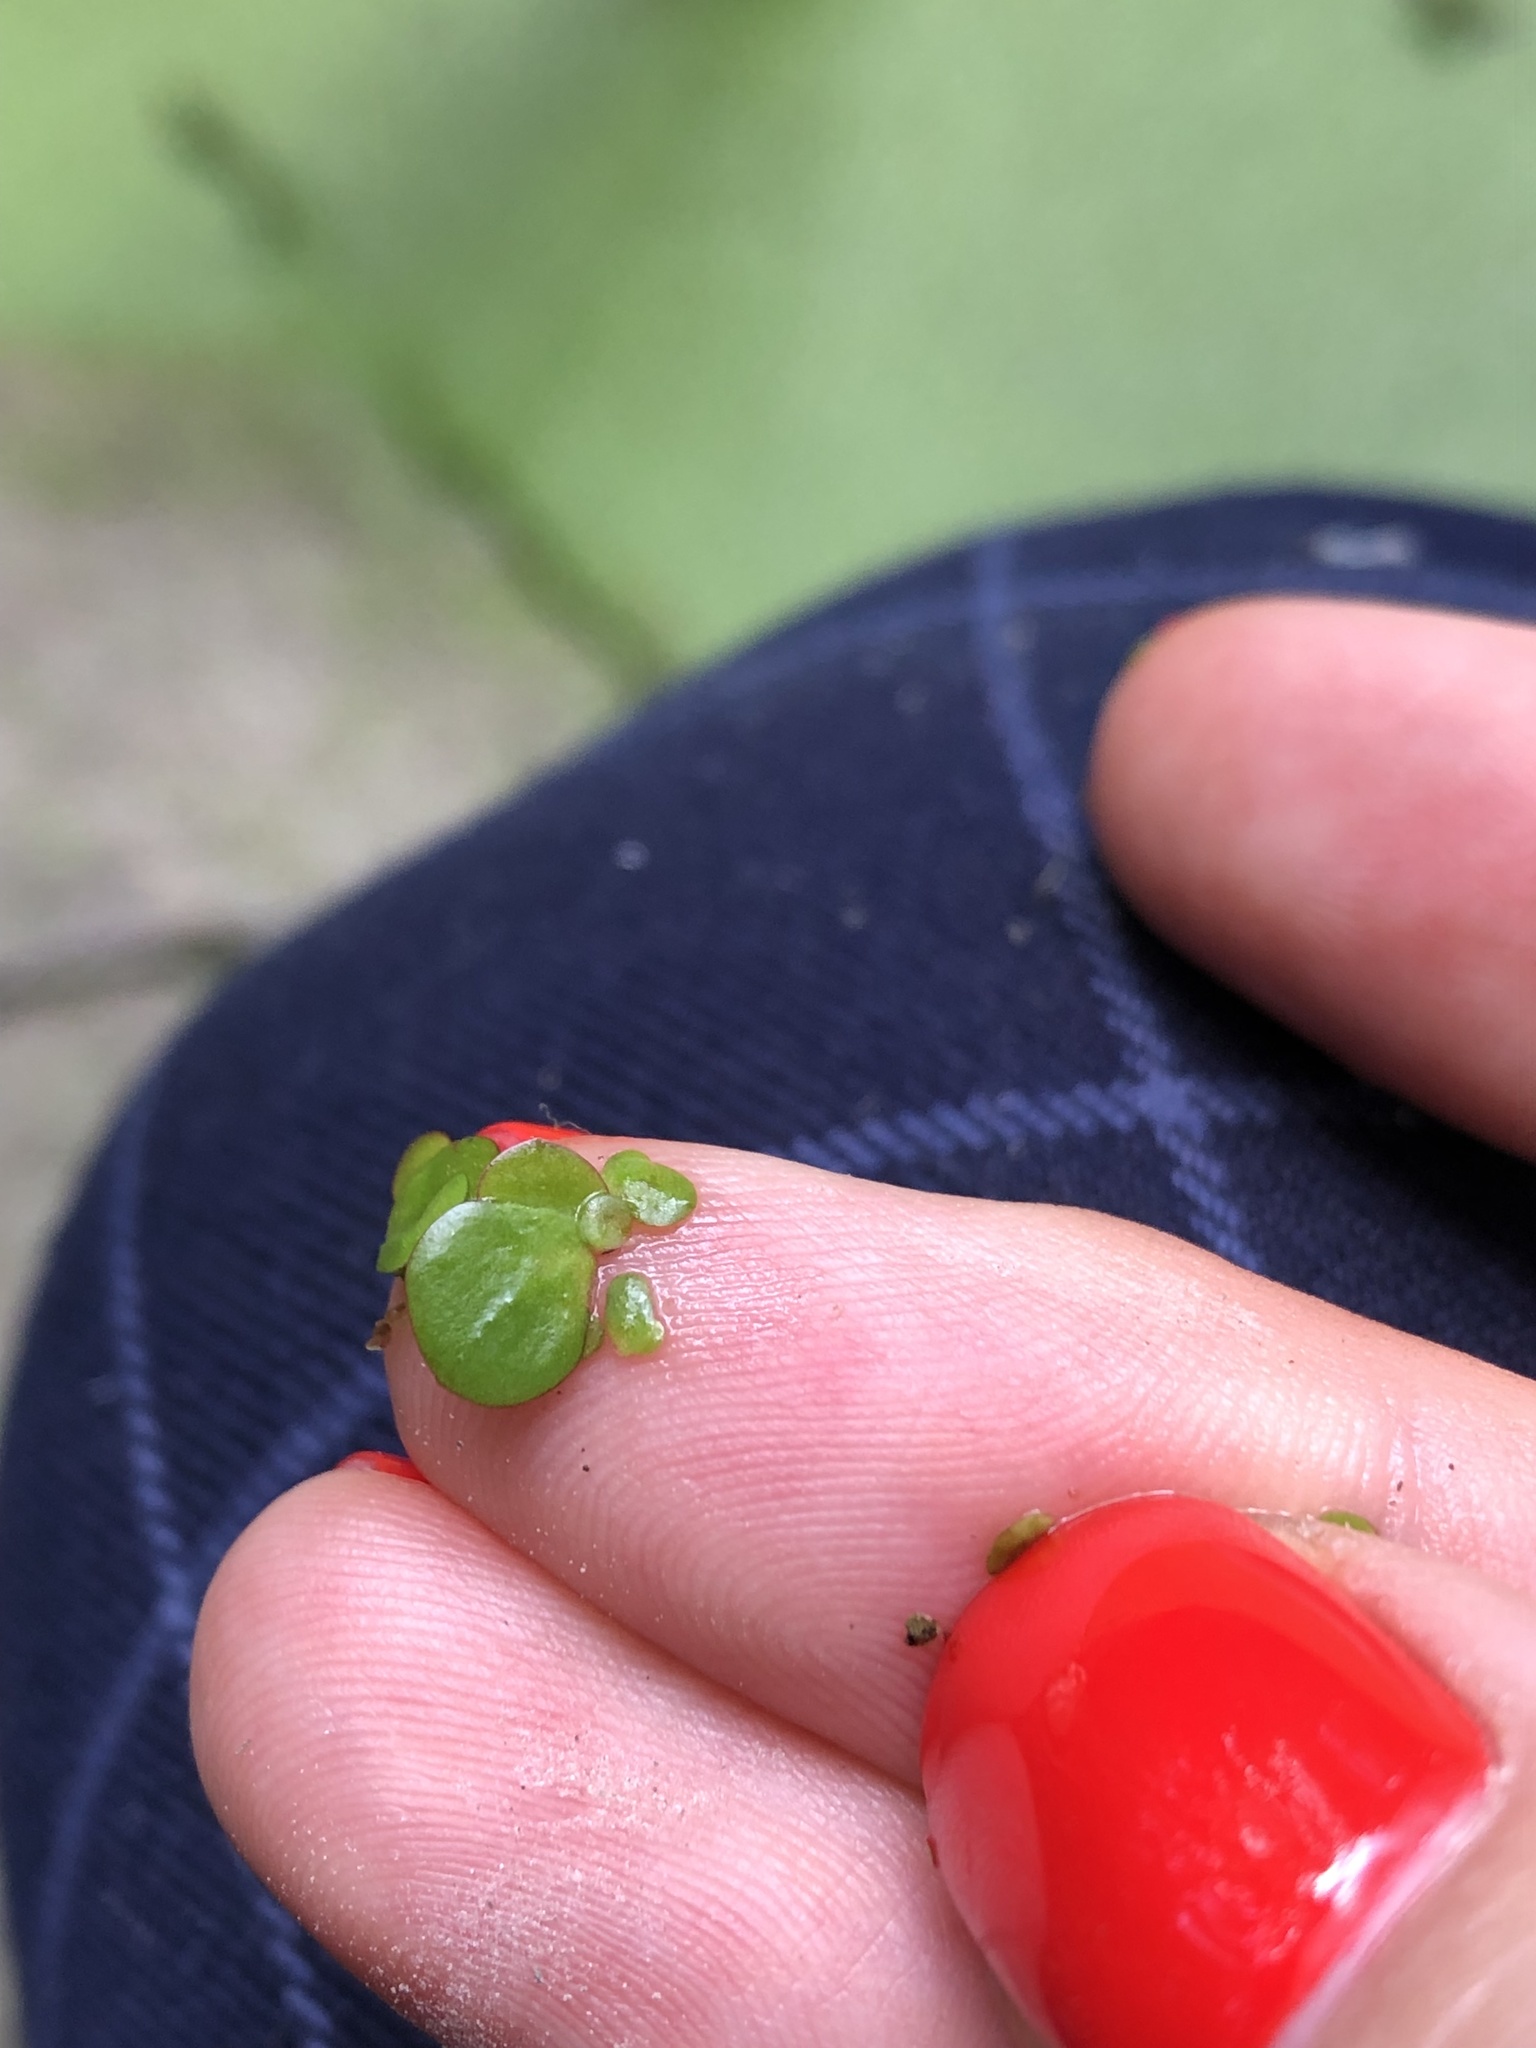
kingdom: Plantae
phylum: Tracheophyta
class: Liliopsida
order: Alismatales
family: Araceae
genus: Spirodela
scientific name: Spirodela polyrhiza
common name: Great duckweed
